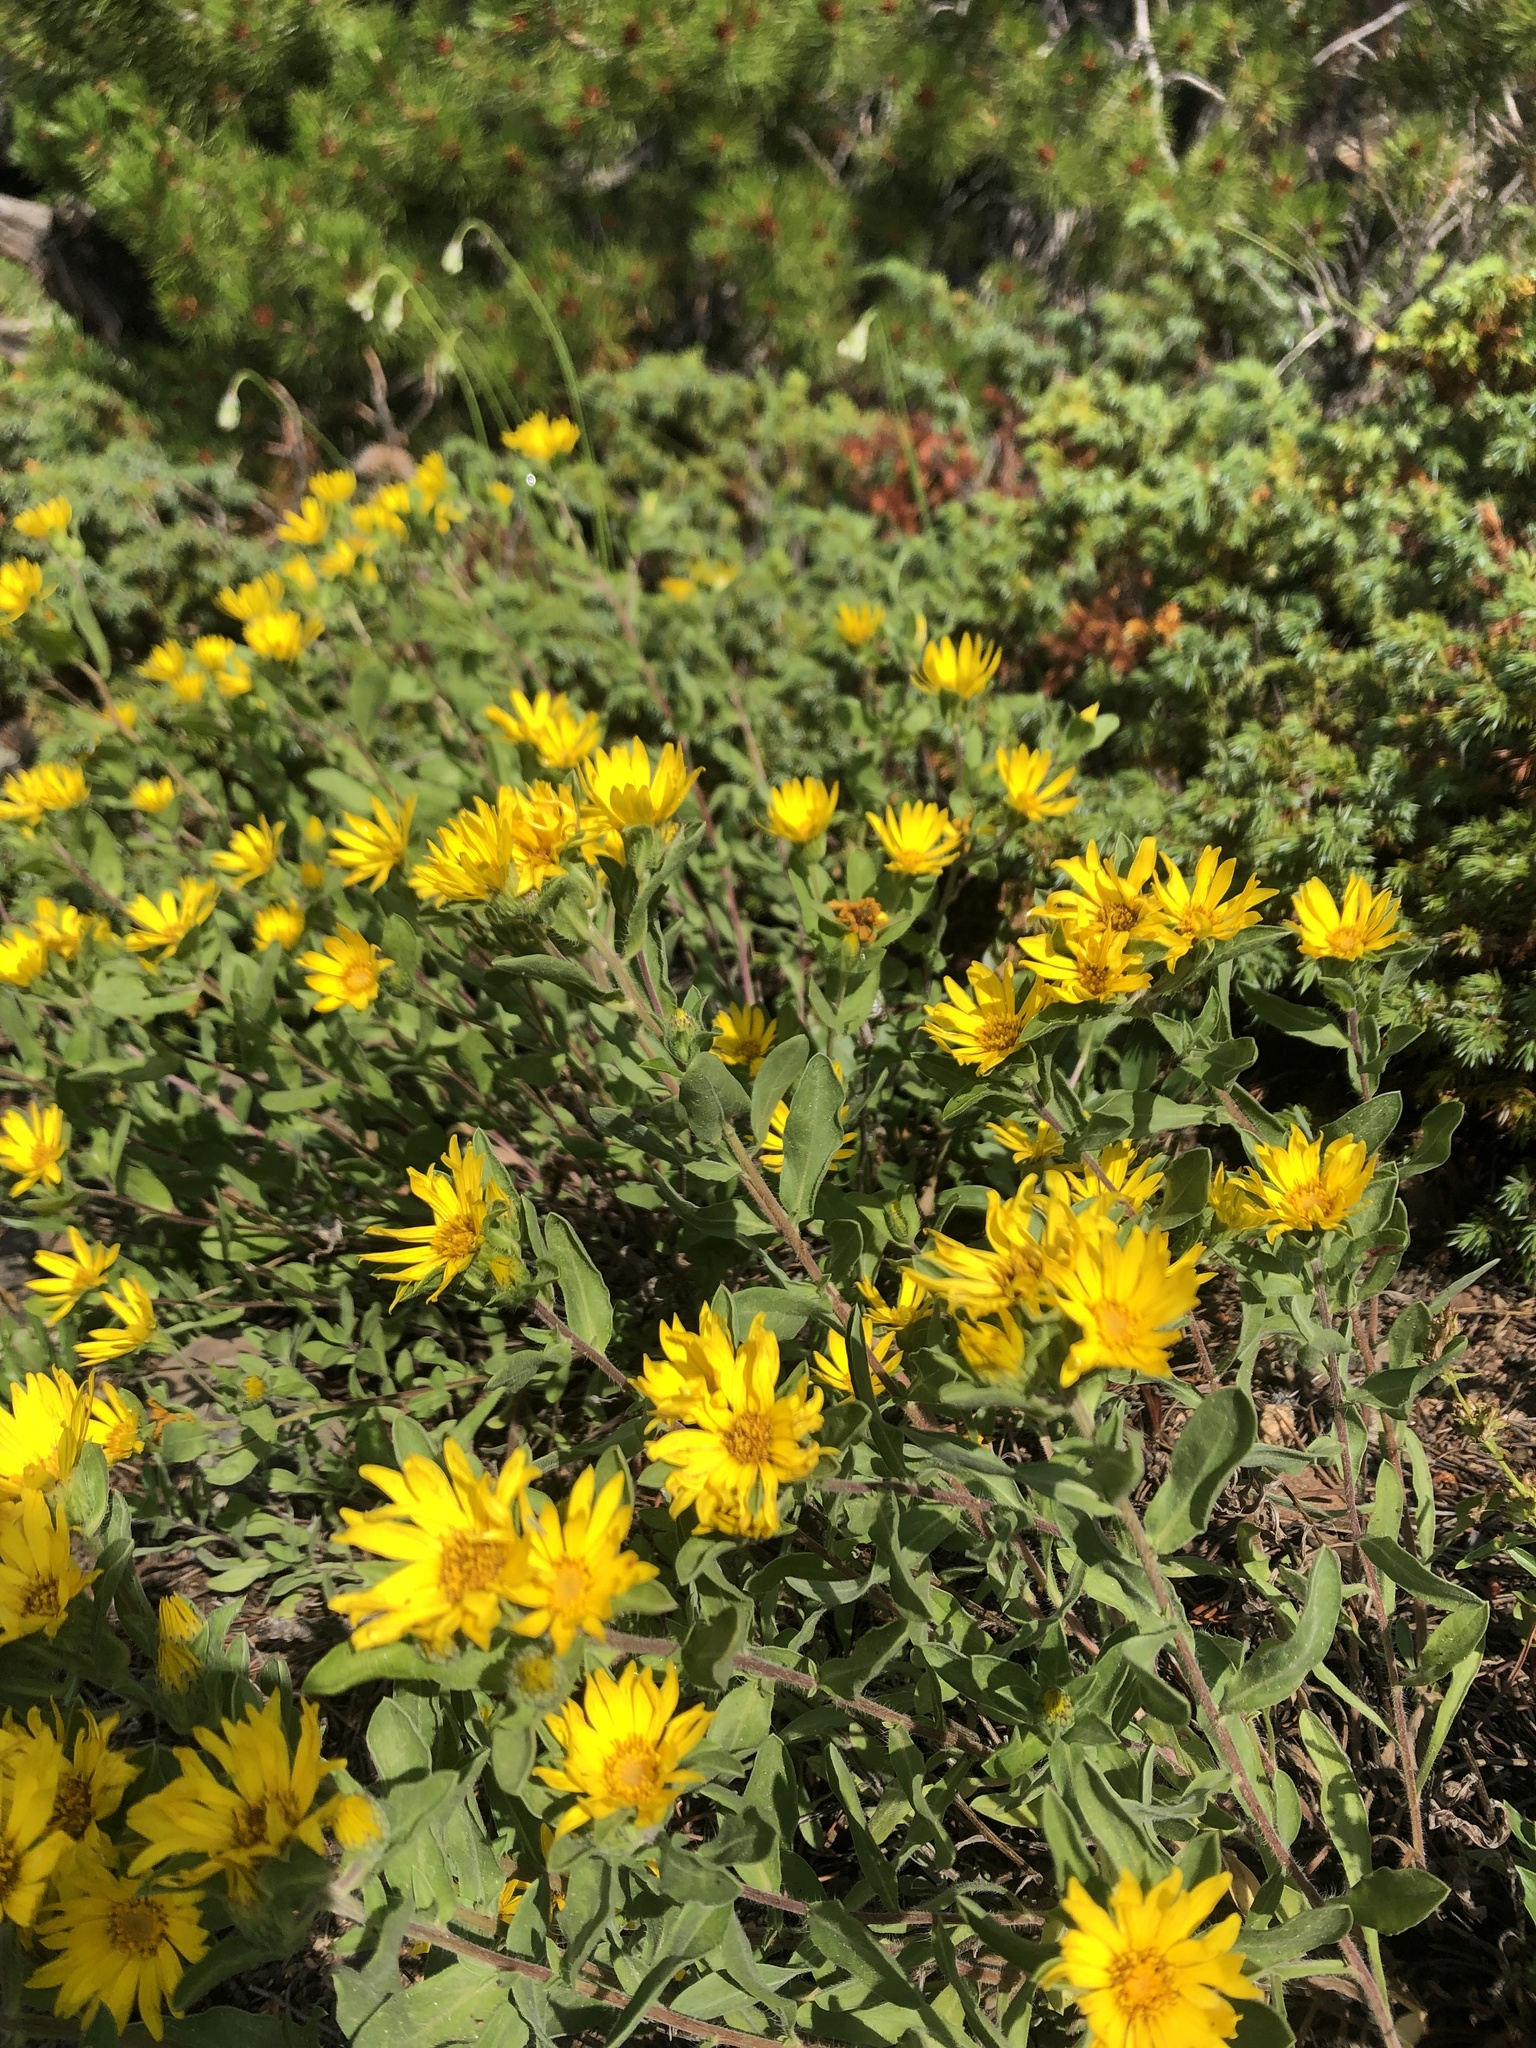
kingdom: Plantae
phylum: Tracheophyta
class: Magnoliopsida
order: Asterales
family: Asteraceae
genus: Heterotheca
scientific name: Heterotheca resinolens
